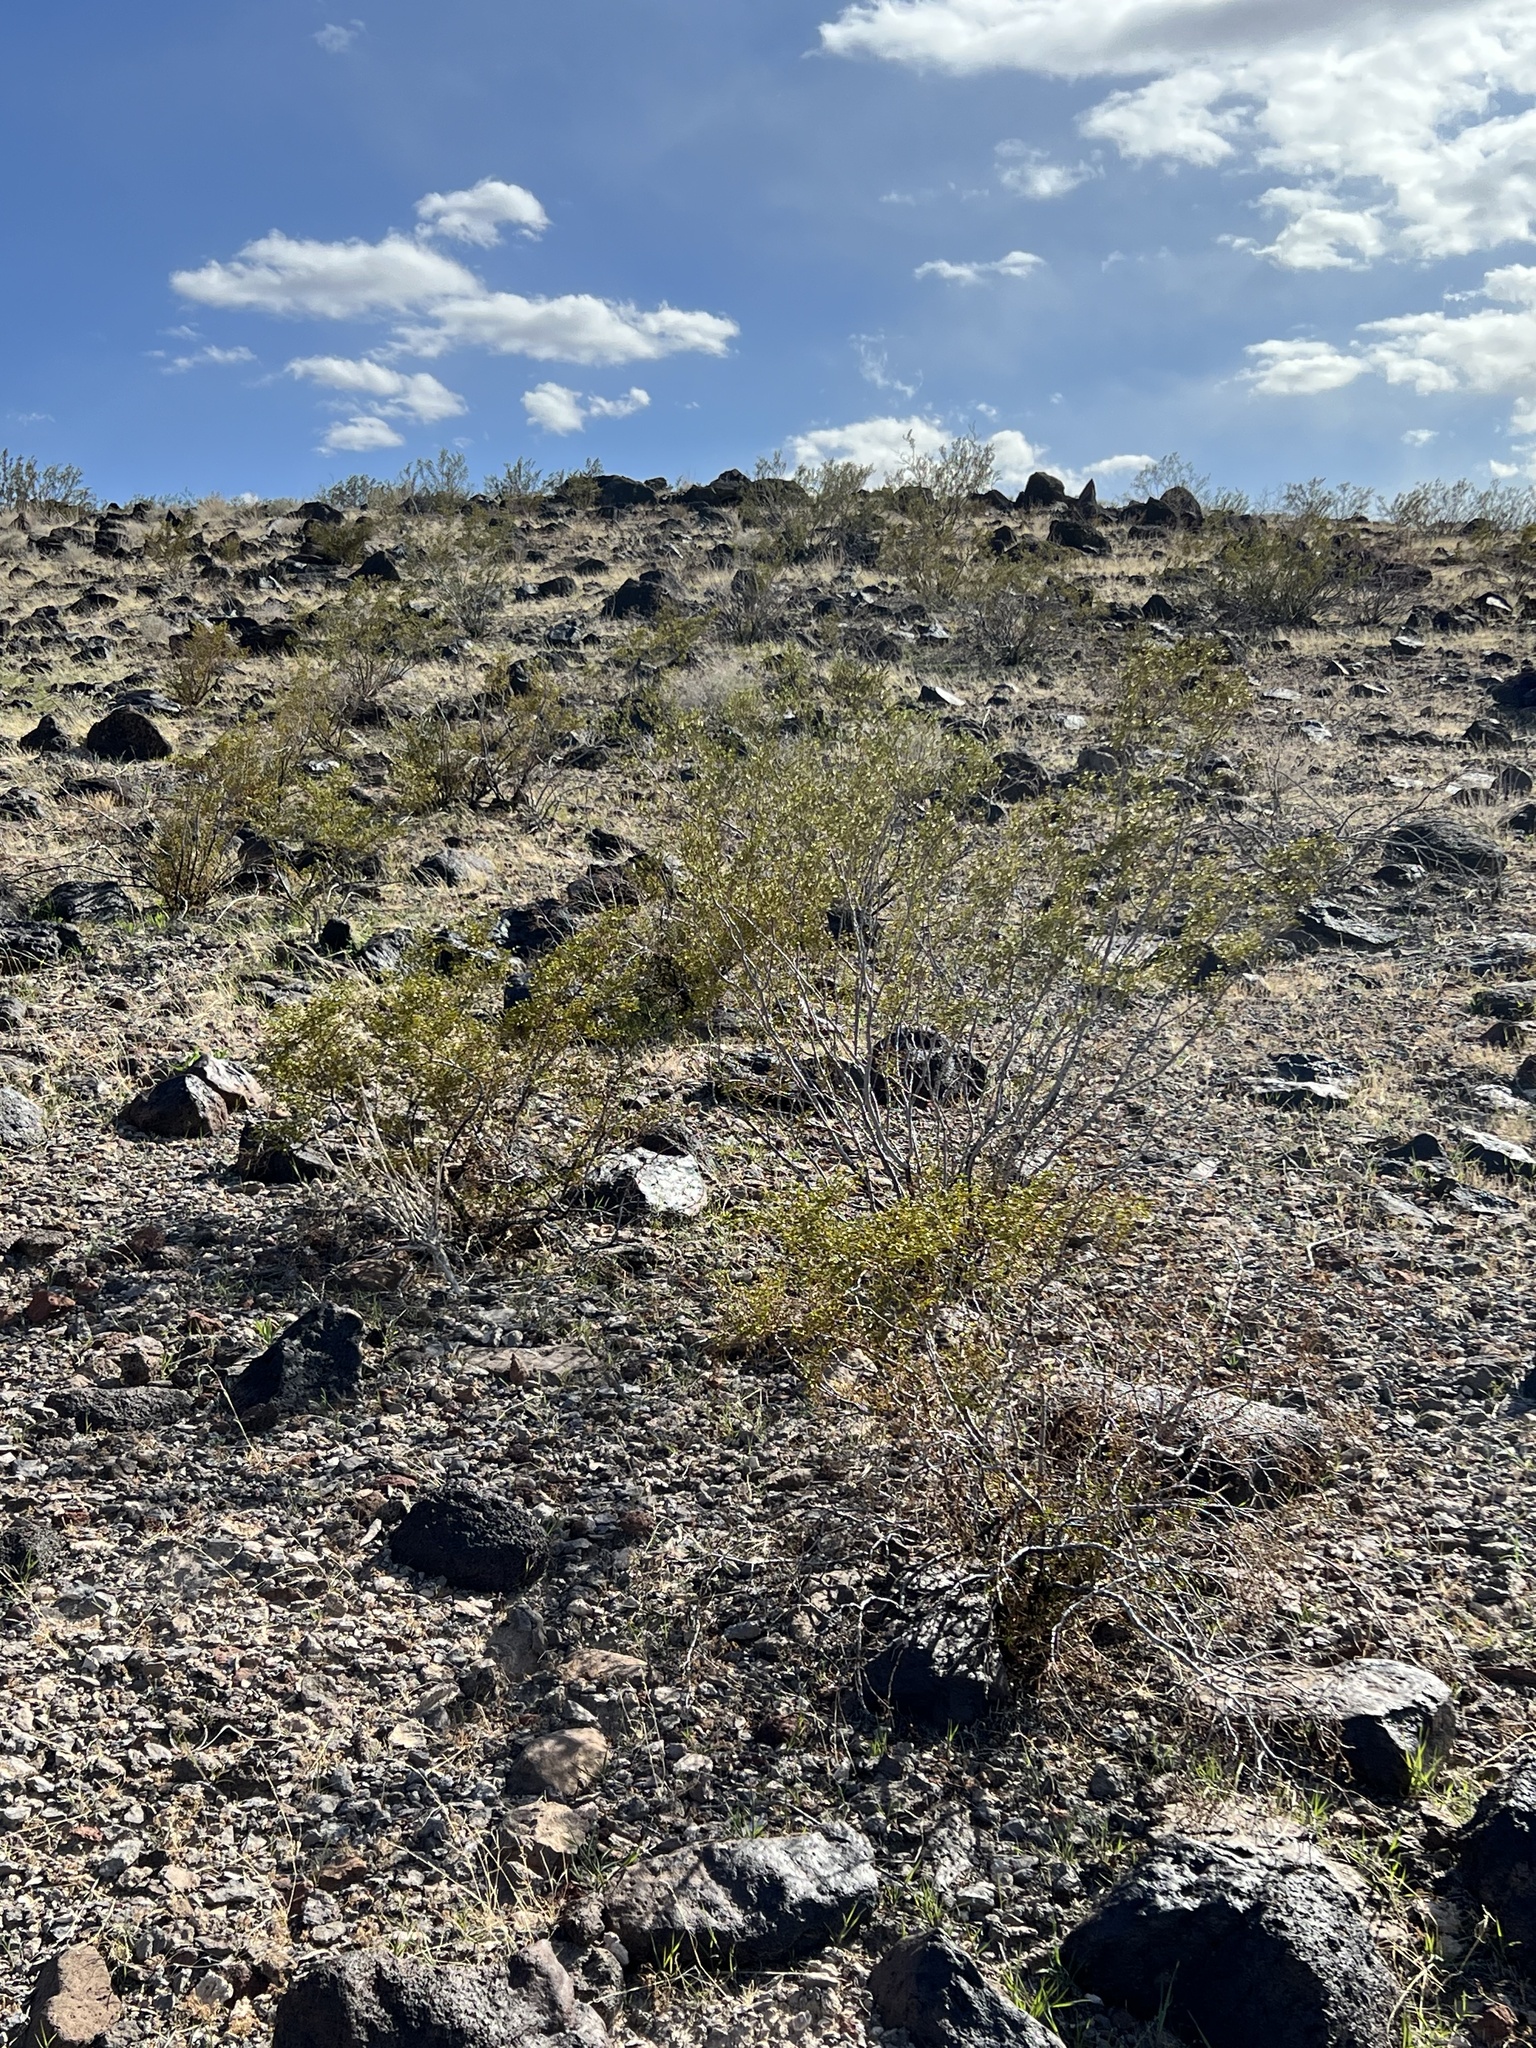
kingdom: Plantae
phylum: Tracheophyta
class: Magnoliopsida
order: Zygophyllales
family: Zygophyllaceae
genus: Larrea
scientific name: Larrea tridentata
